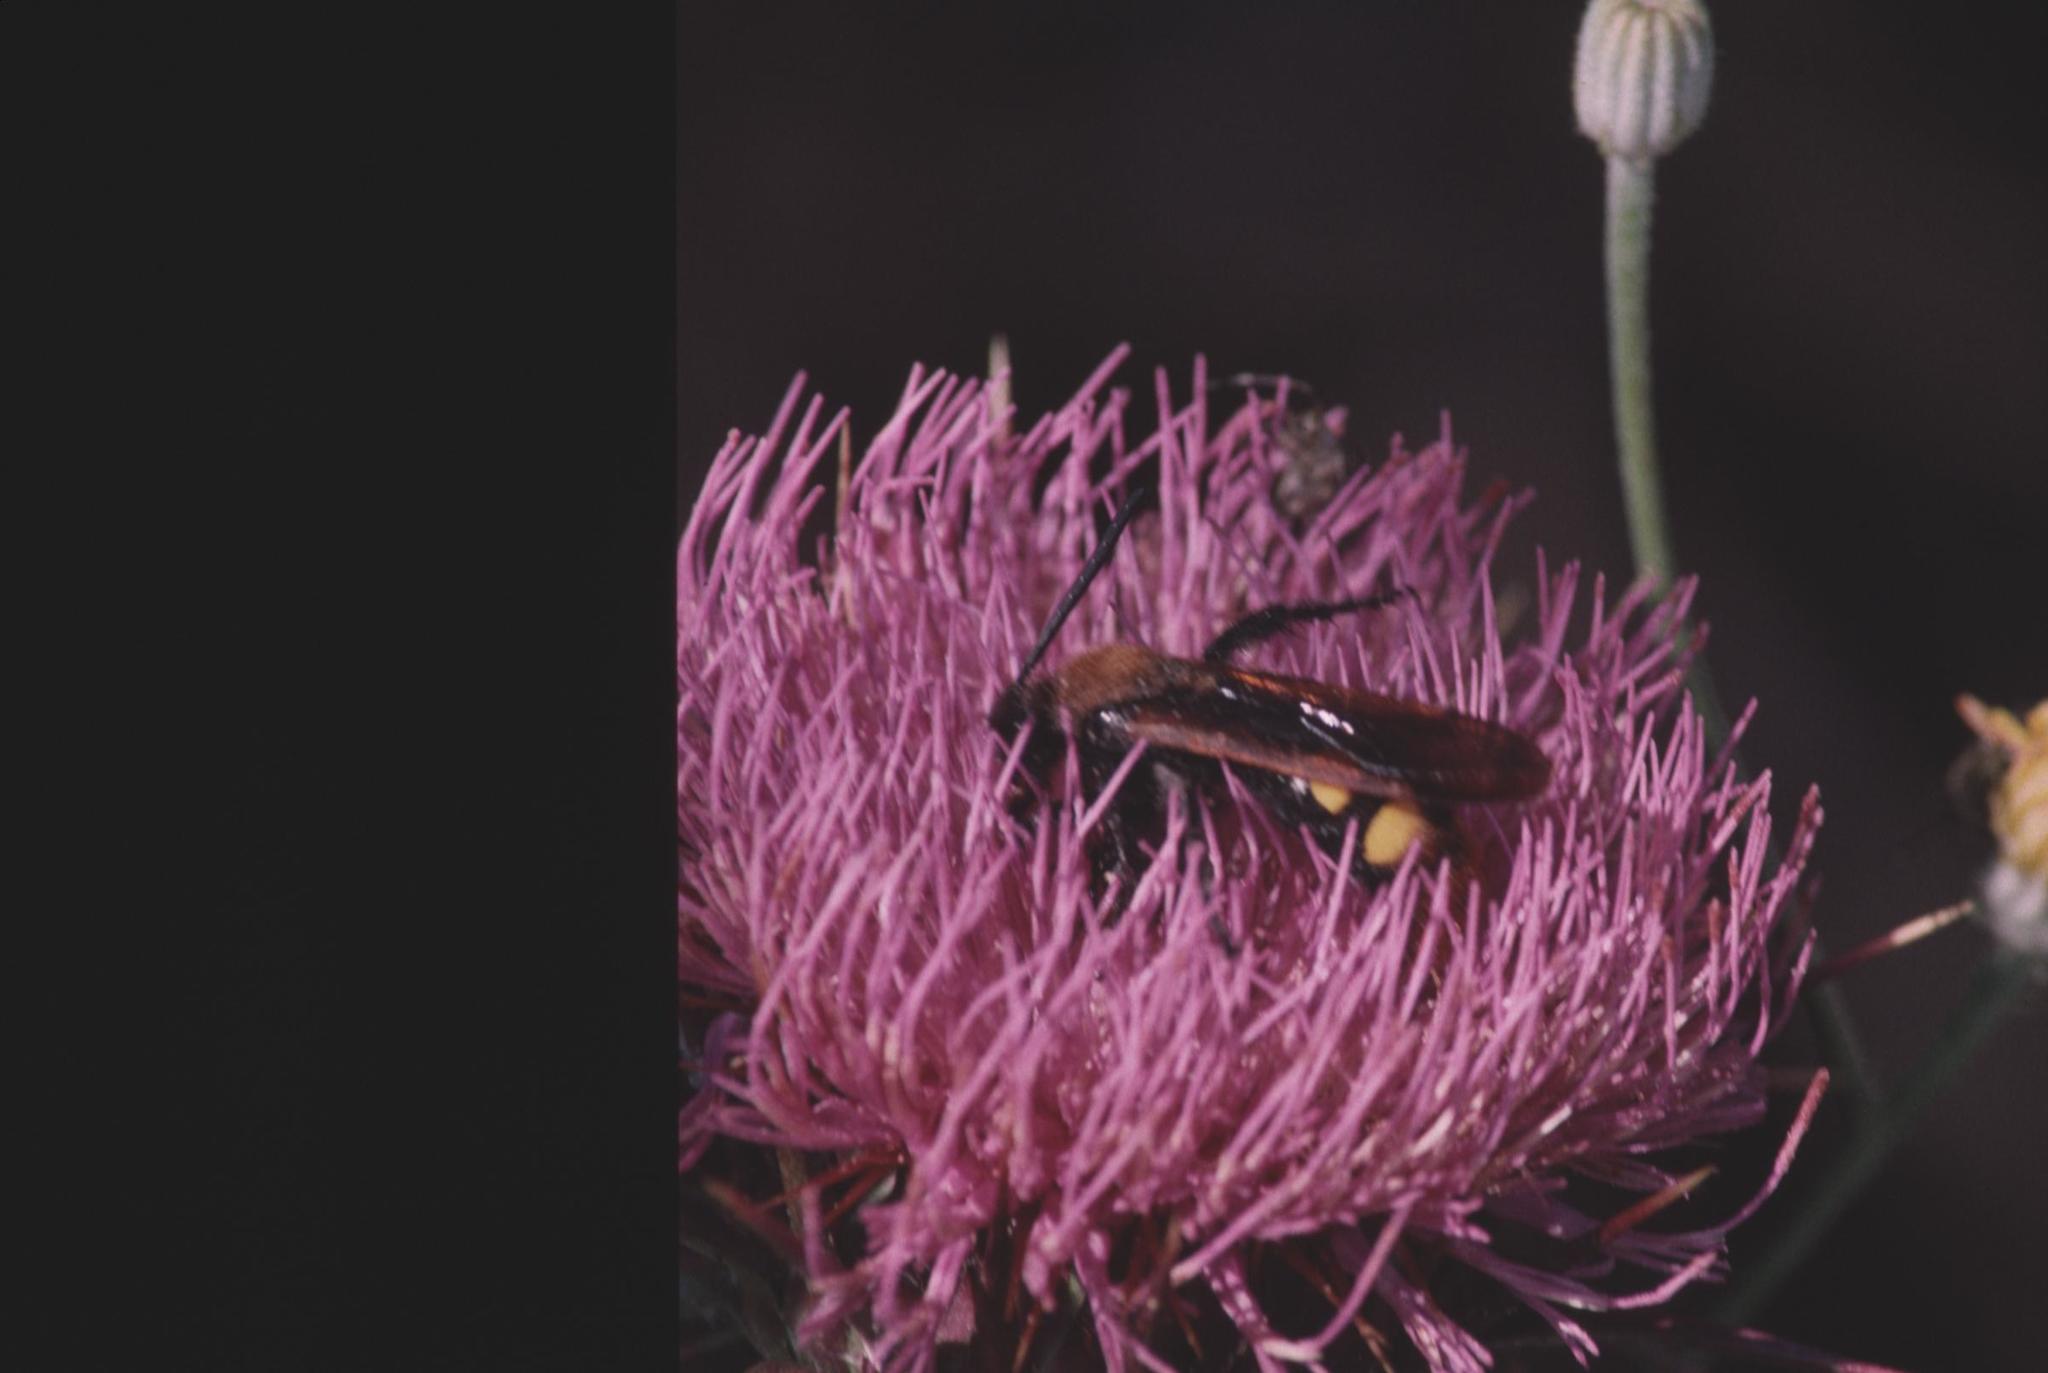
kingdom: Animalia
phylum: Arthropoda
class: Insecta
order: Hymenoptera
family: Scoliidae
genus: Megascolia
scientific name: Megascolia maculata
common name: Mammoth wasp
